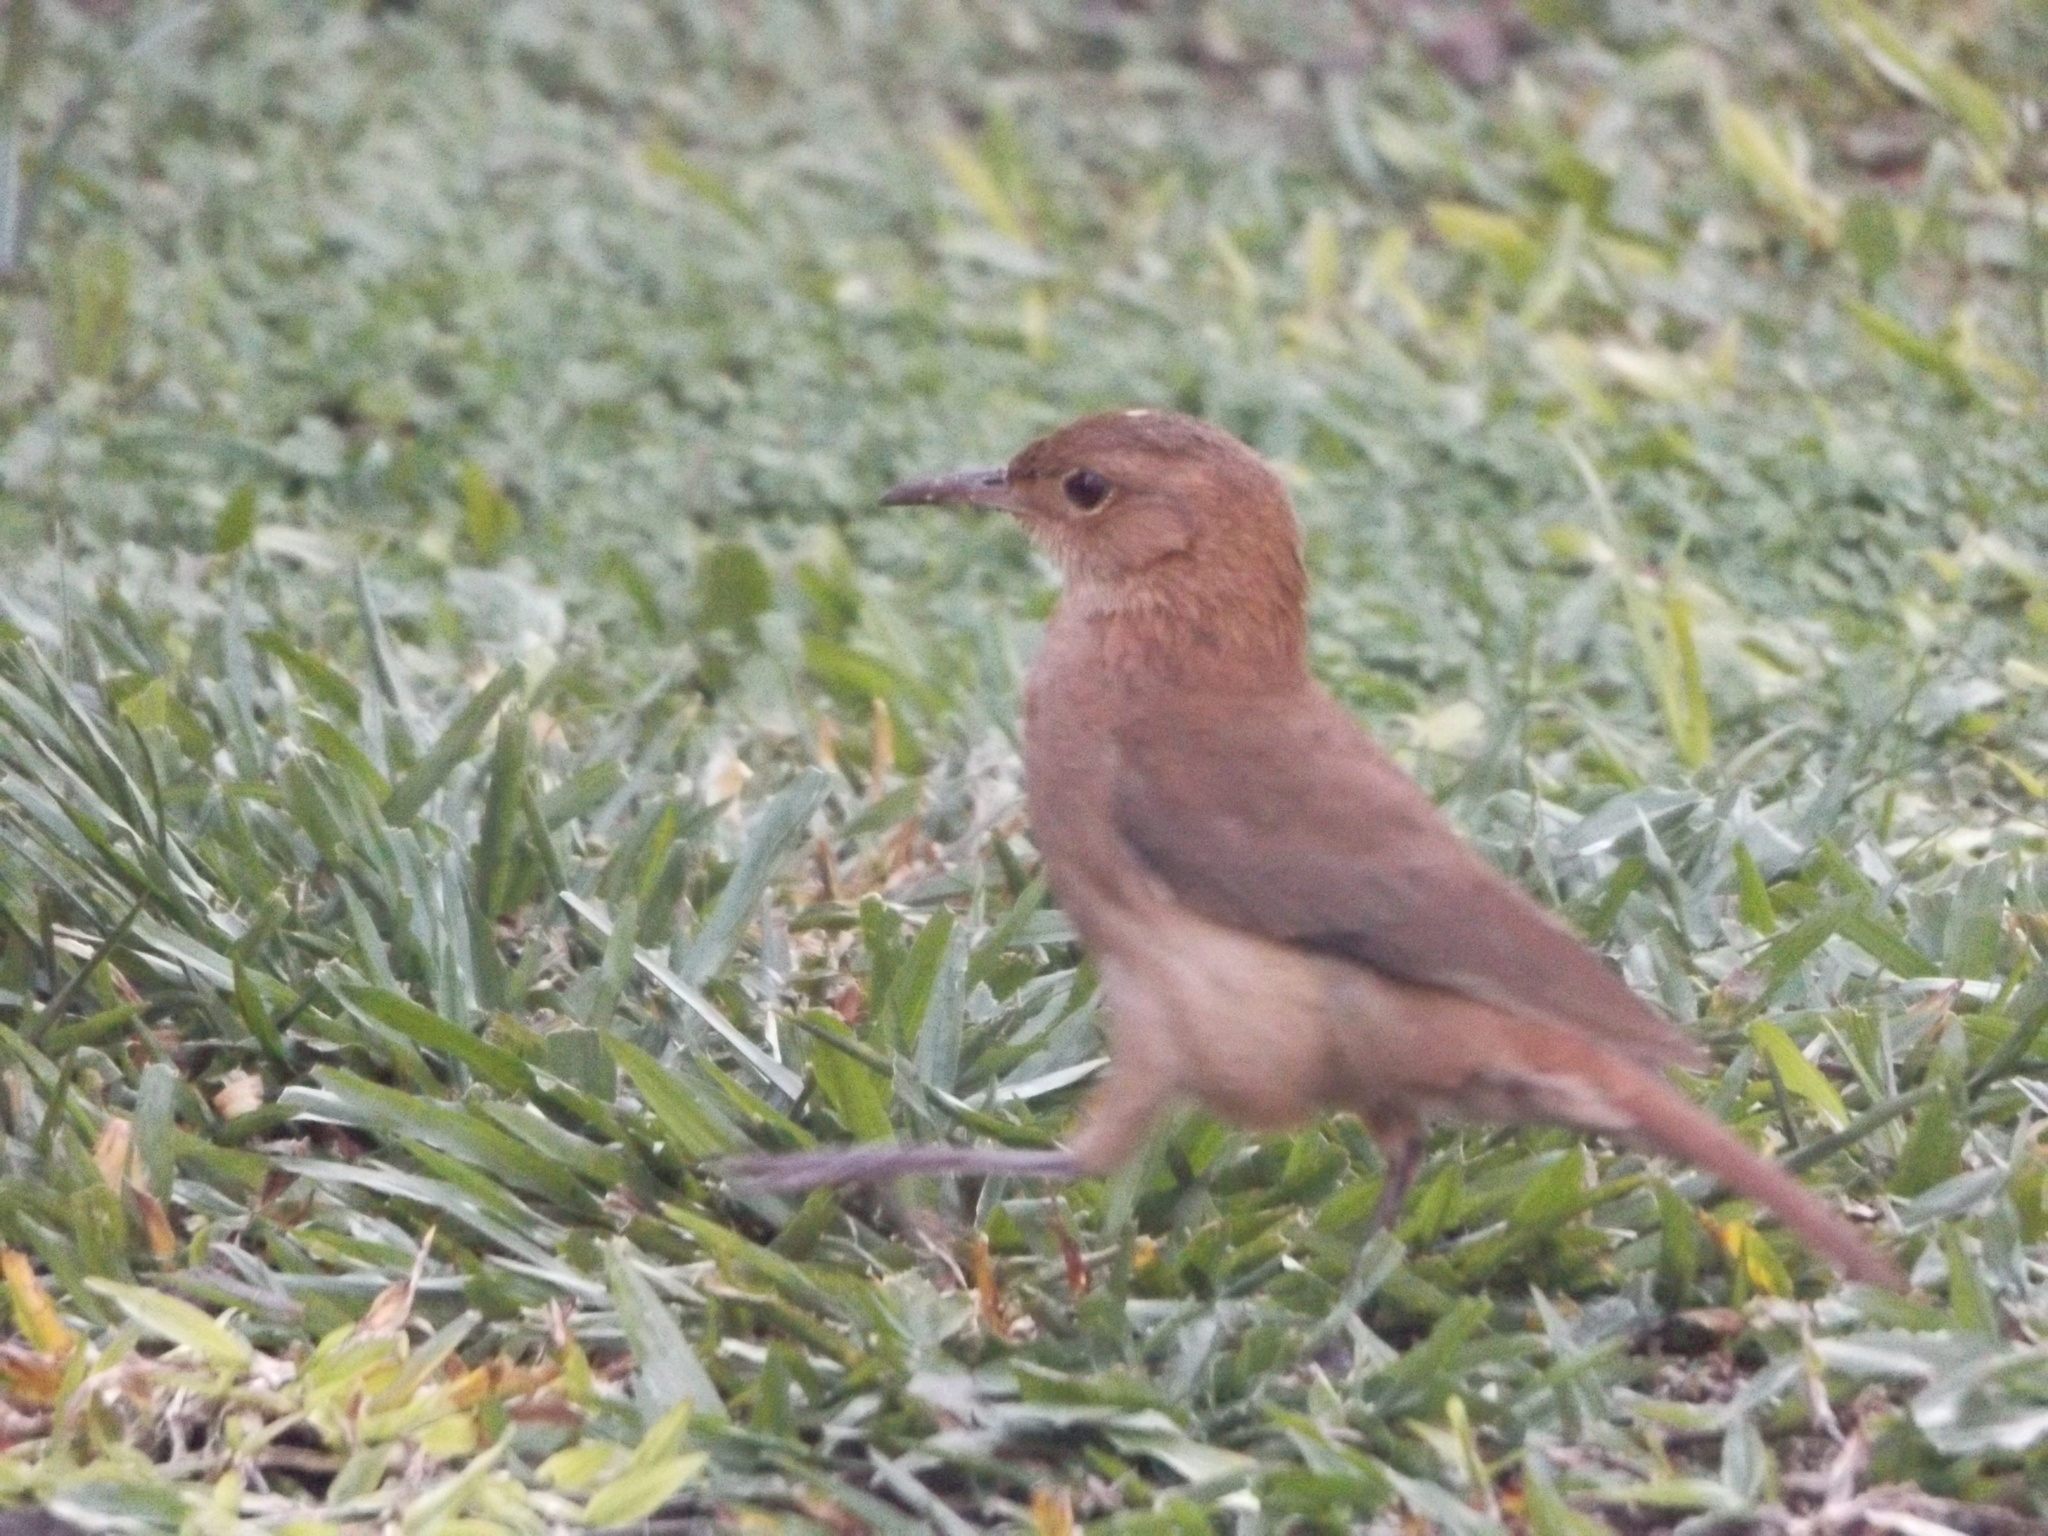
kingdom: Animalia
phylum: Chordata
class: Aves
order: Passeriformes
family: Furnariidae
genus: Furnarius
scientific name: Furnarius rufus
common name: Rufous hornero
